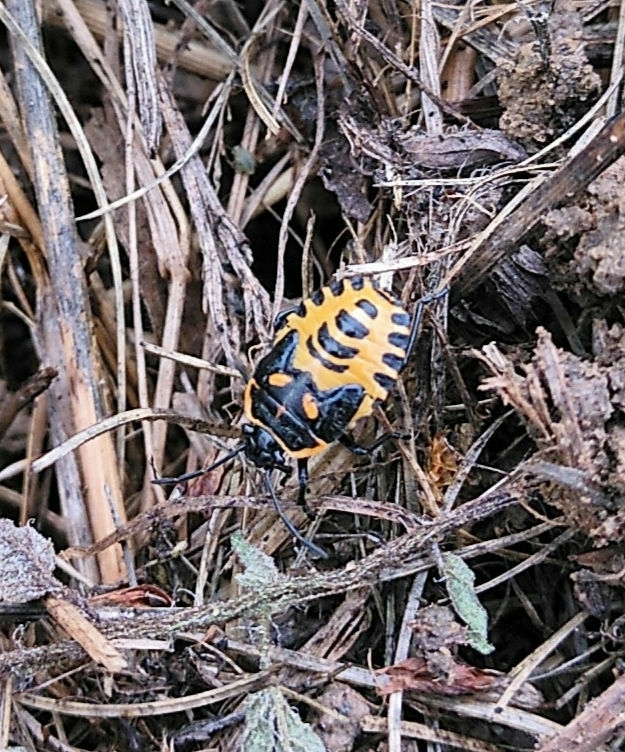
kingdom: Animalia
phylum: Arthropoda
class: Insecta
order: Hemiptera
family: Pentatomidae
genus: Eurydema
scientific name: Eurydema ventralis
